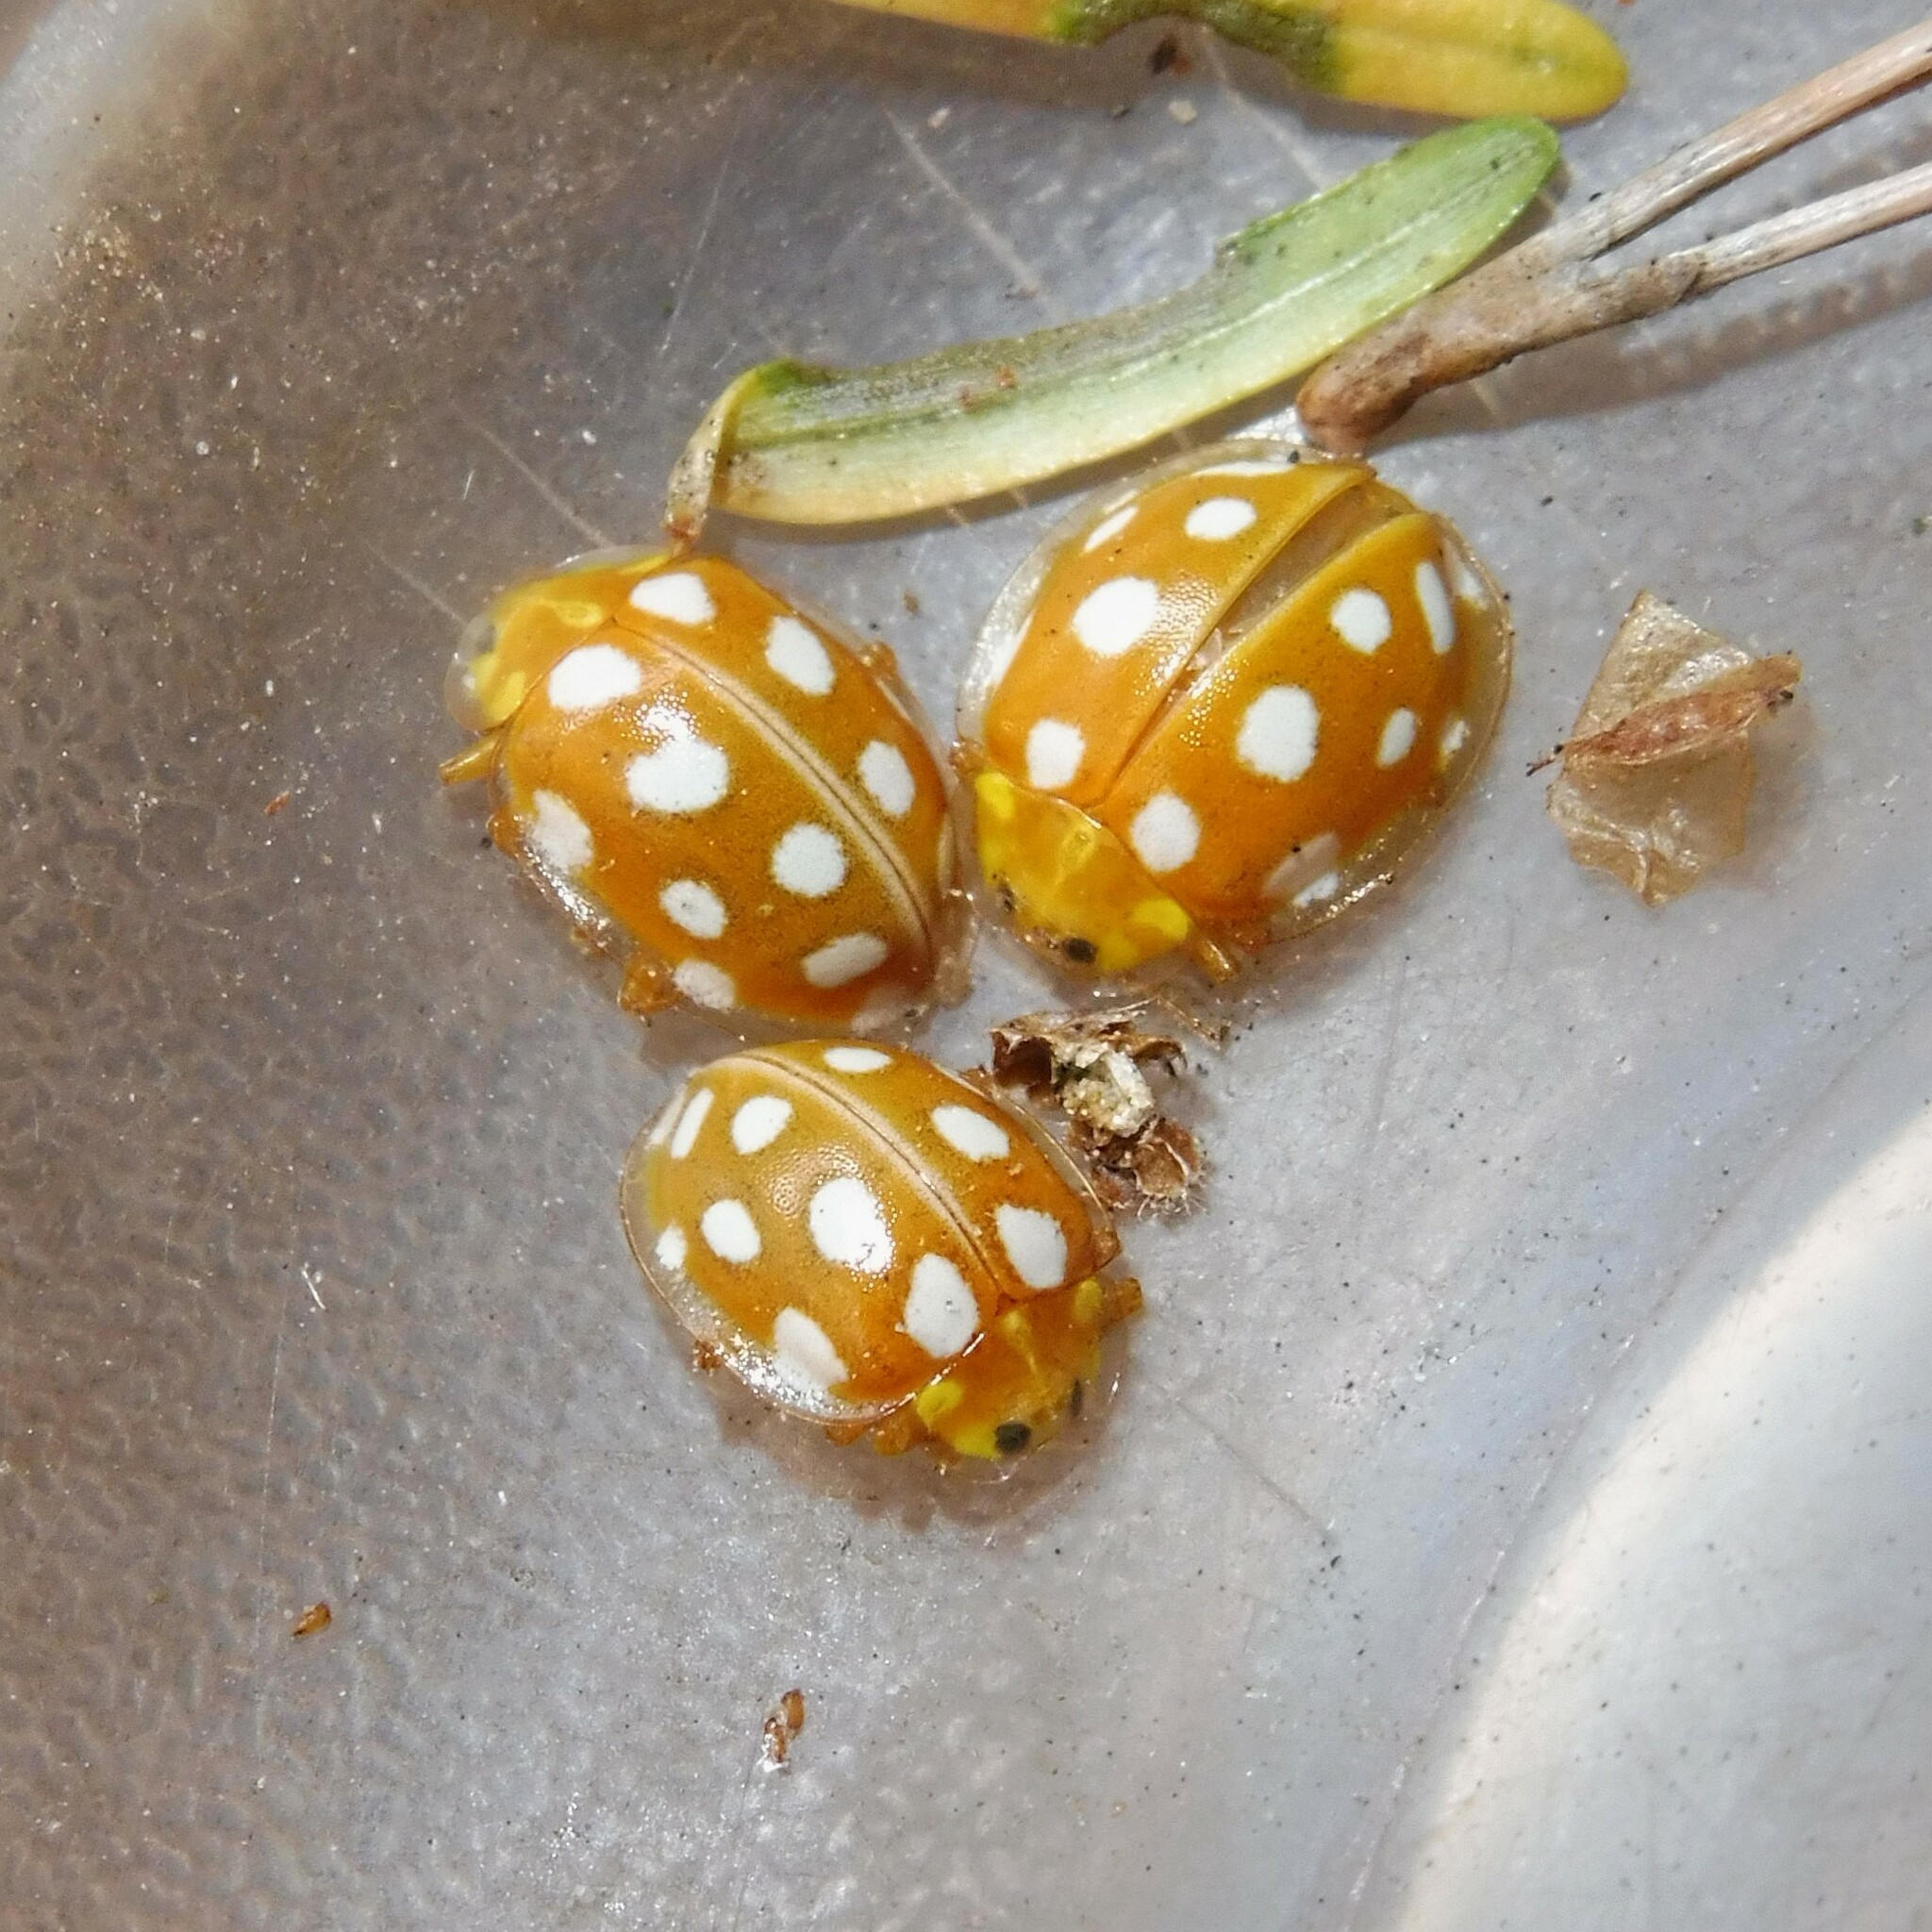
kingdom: Animalia
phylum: Arthropoda
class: Insecta
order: Coleoptera
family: Coccinellidae
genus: Halyzia
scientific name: Halyzia sedecimguttata
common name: Orange ladybird
